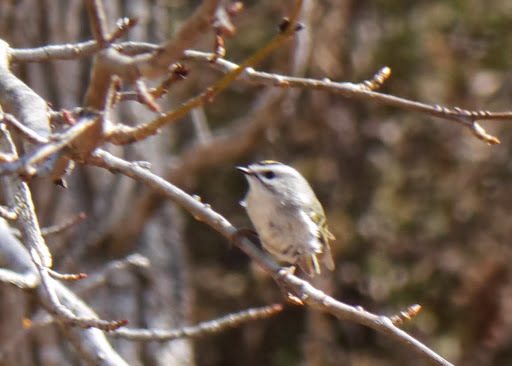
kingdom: Animalia
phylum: Chordata
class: Aves
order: Passeriformes
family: Regulidae
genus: Regulus
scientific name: Regulus satrapa
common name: Golden-crowned kinglet
